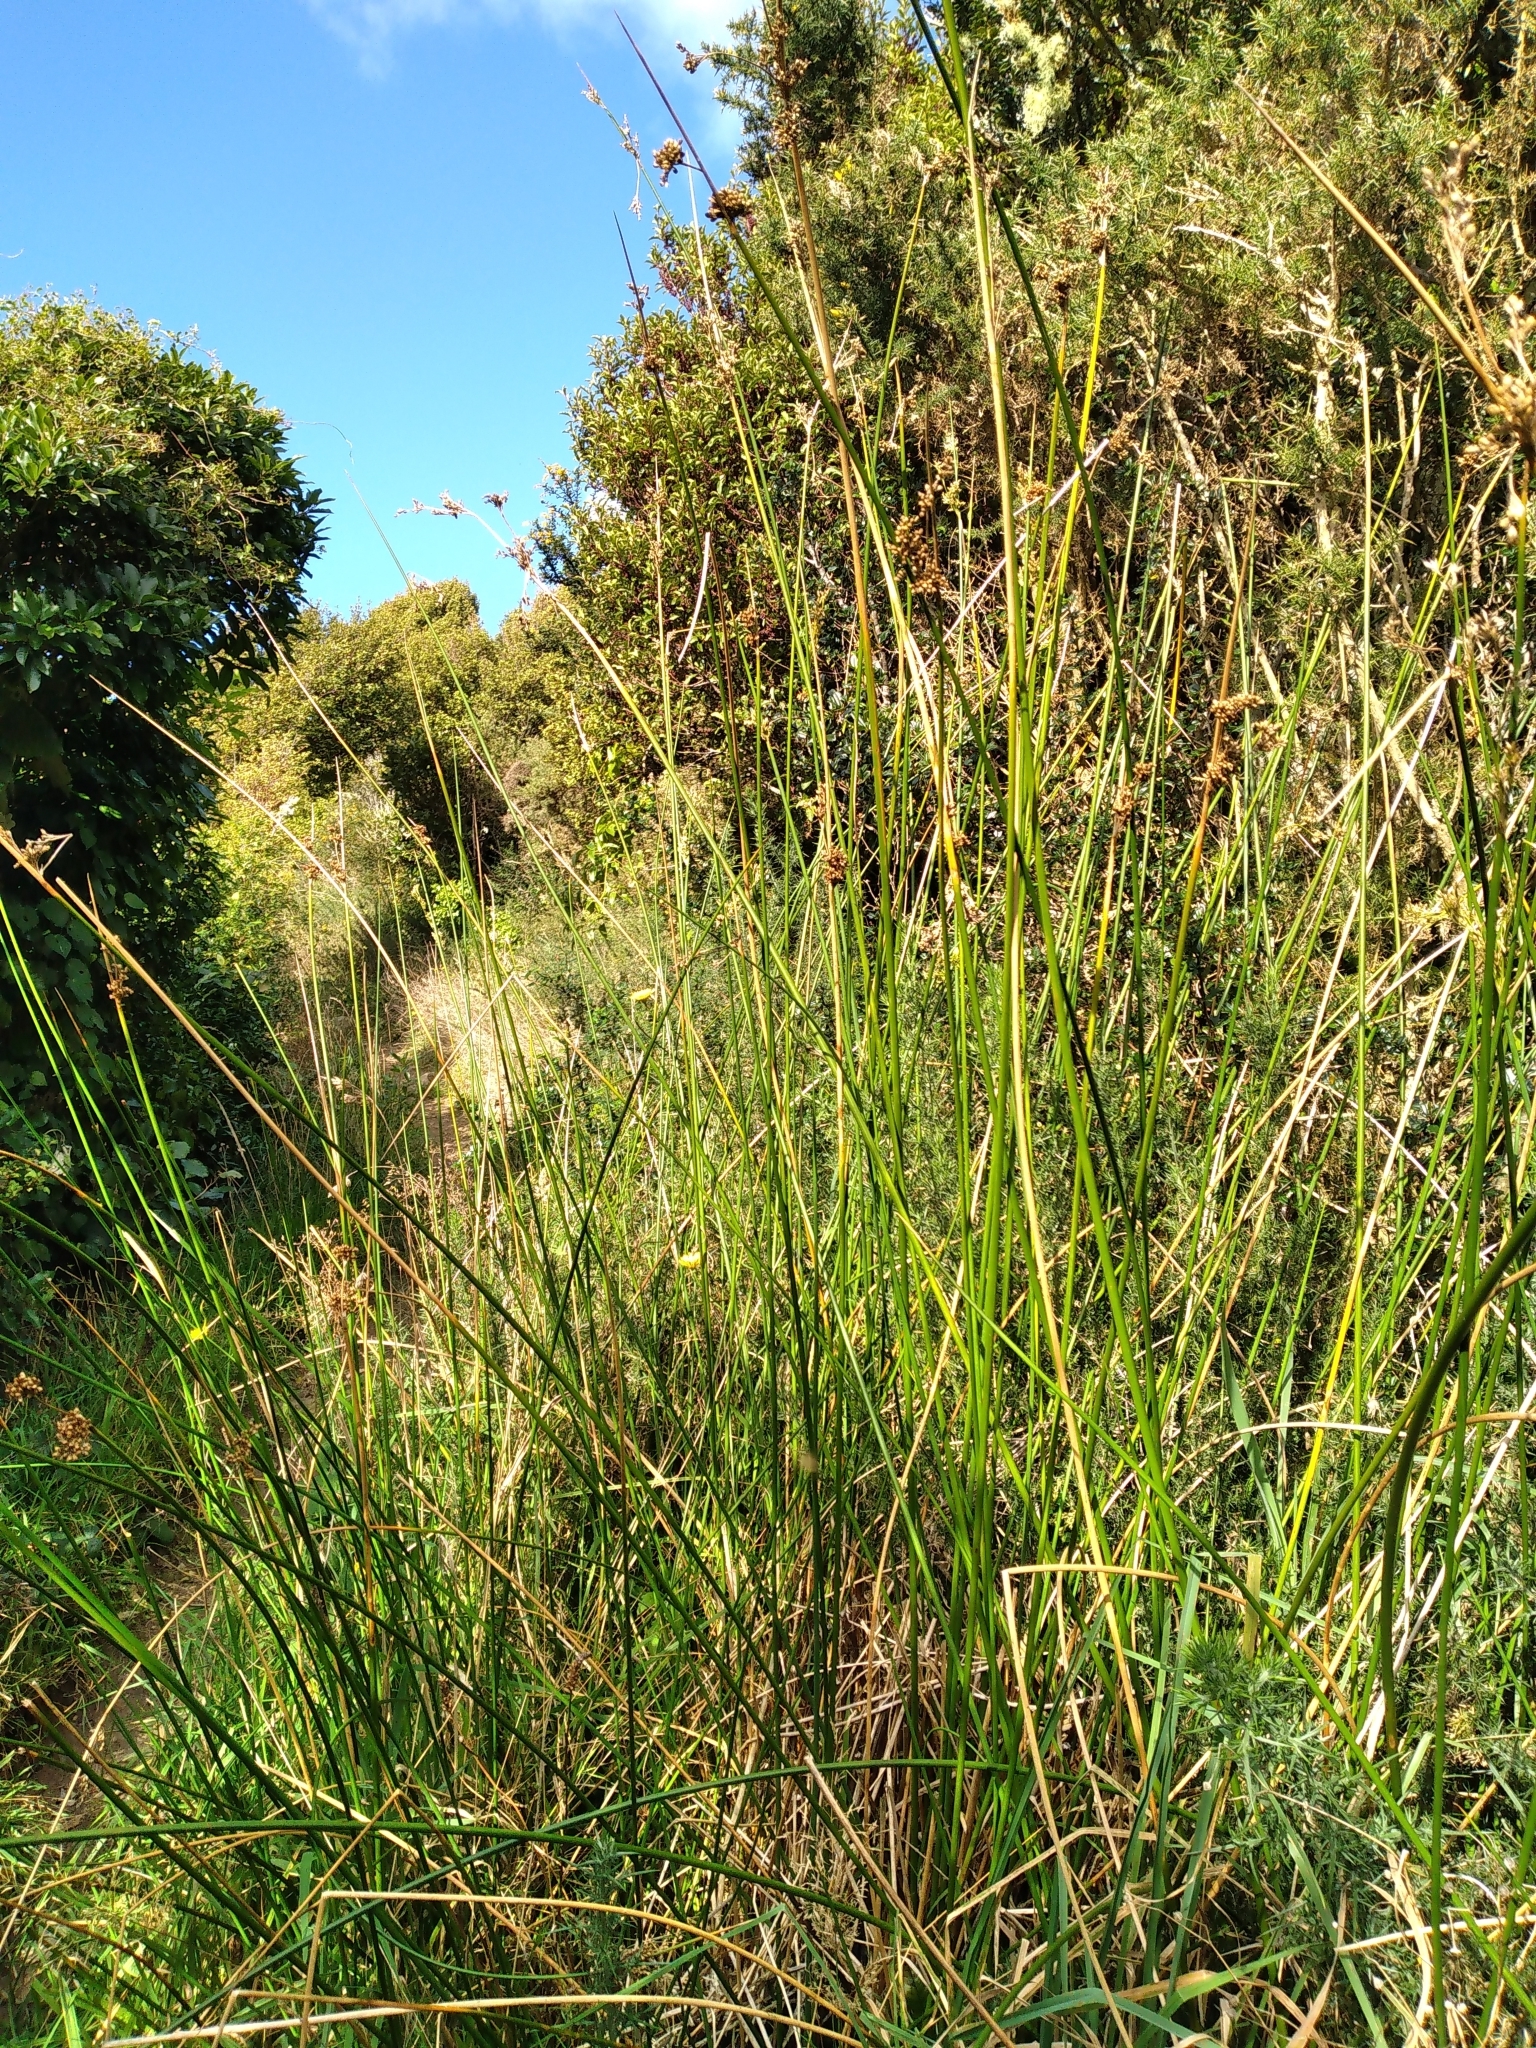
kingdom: Plantae
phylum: Tracheophyta
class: Liliopsida
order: Poales
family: Juncaceae
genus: Juncus
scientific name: Juncus pallidus
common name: Great soft-rush
